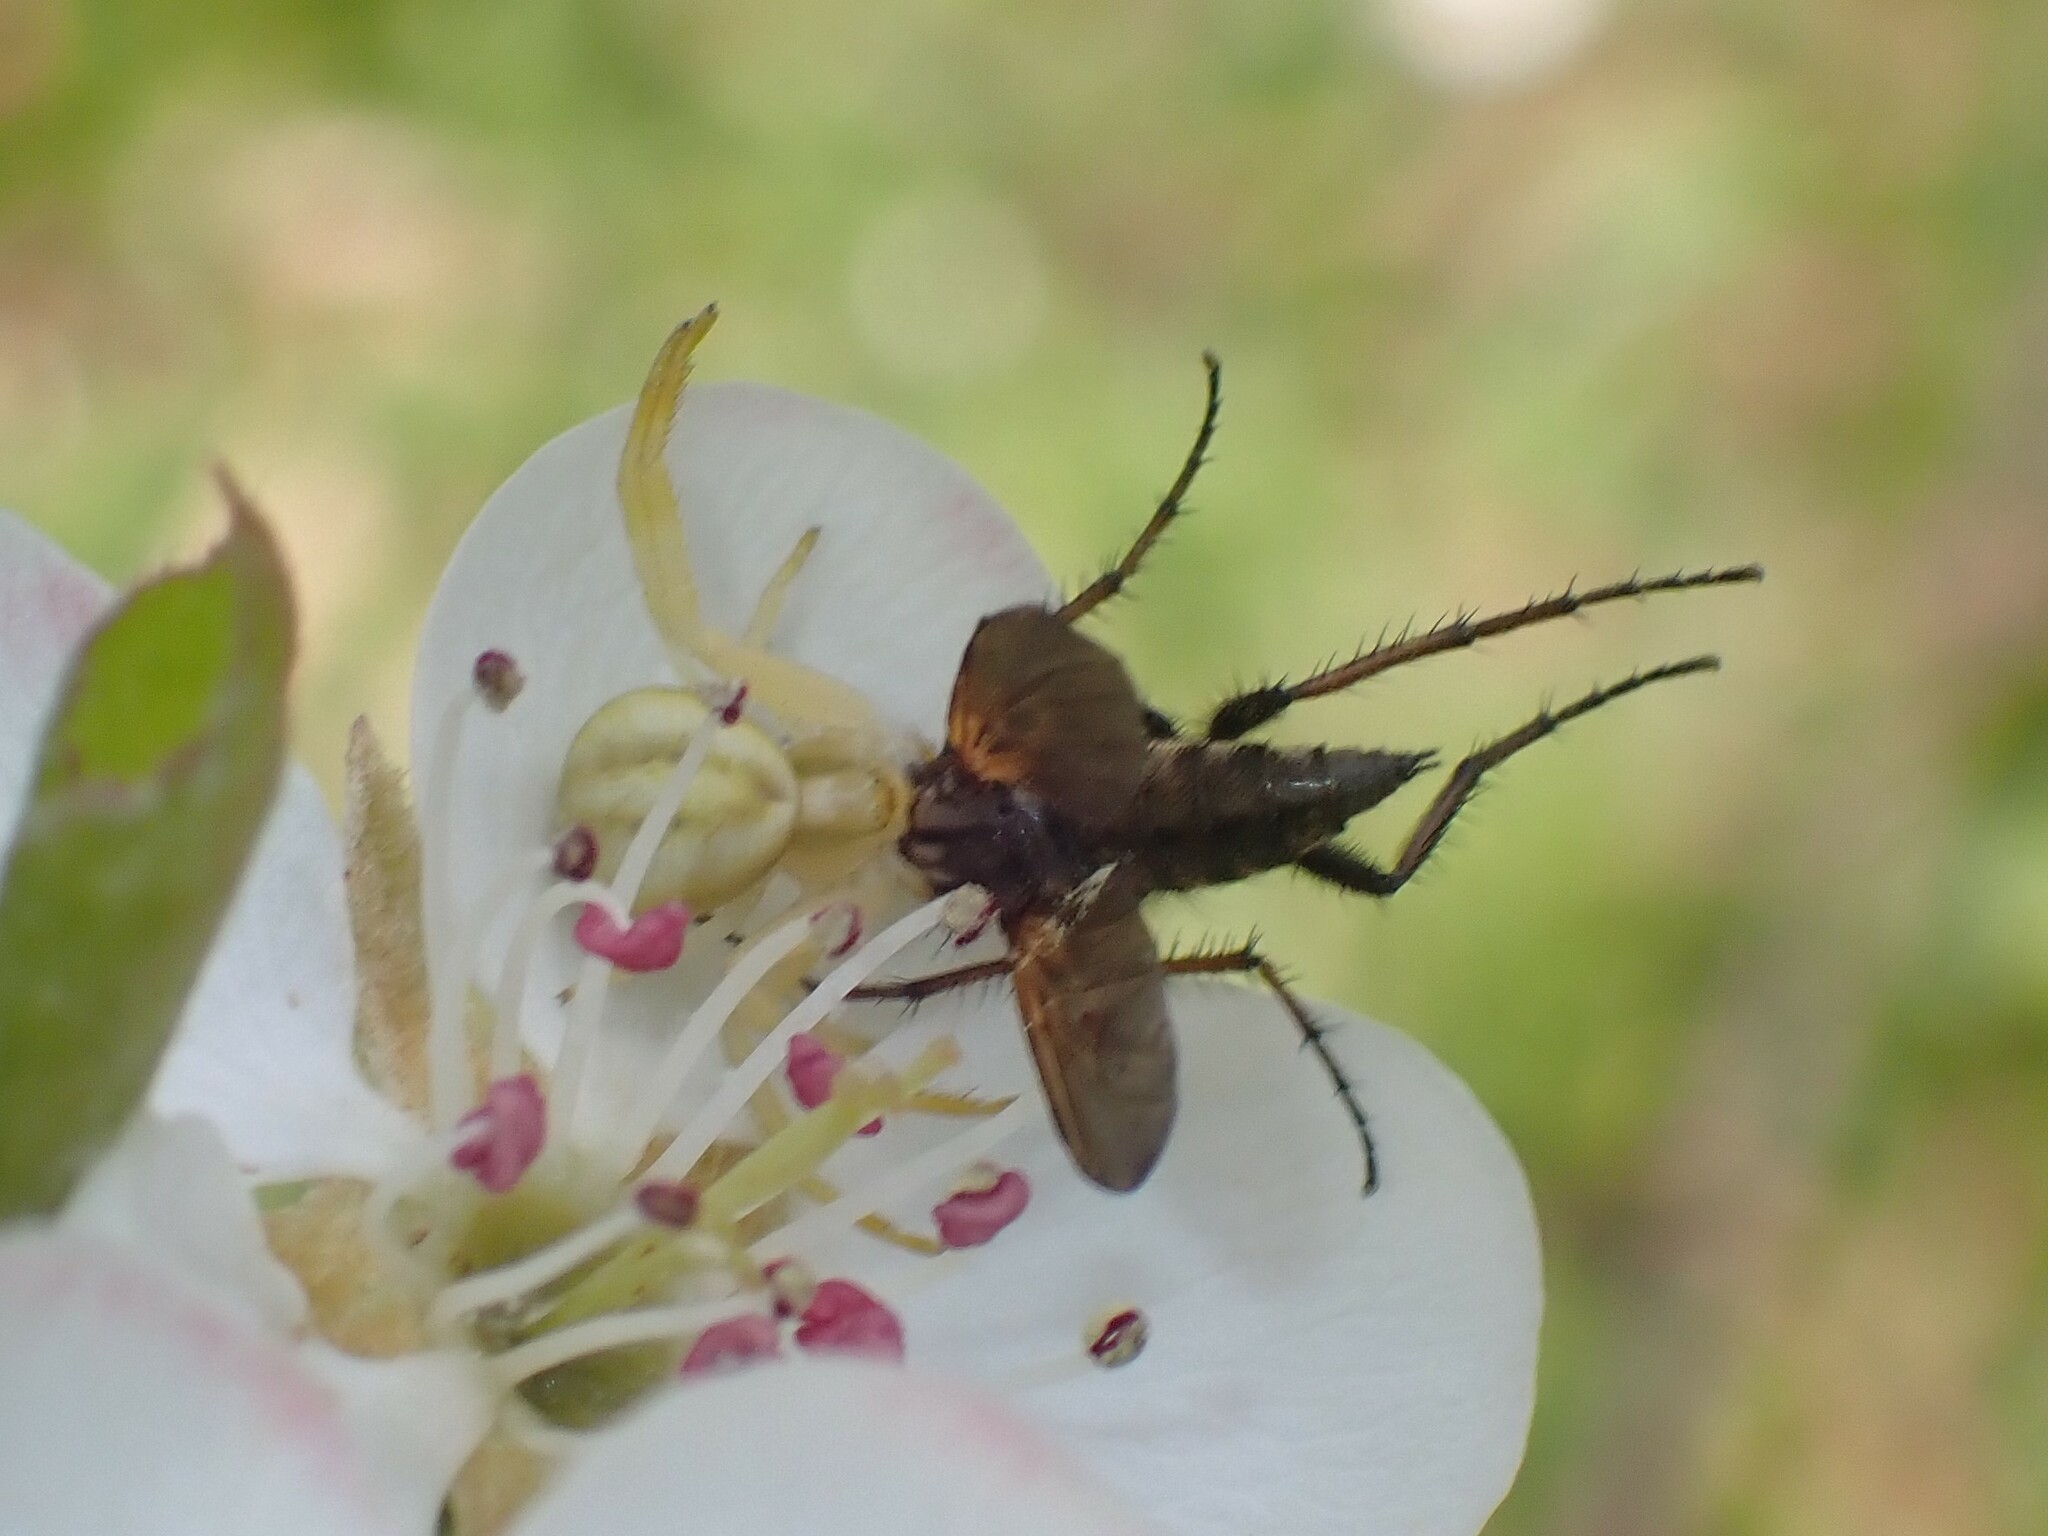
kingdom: Animalia
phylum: Arthropoda
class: Arachnida
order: Araneae
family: Thomisidae
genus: Misumena
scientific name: Misumena vatia
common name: Goldenrod crab spider
